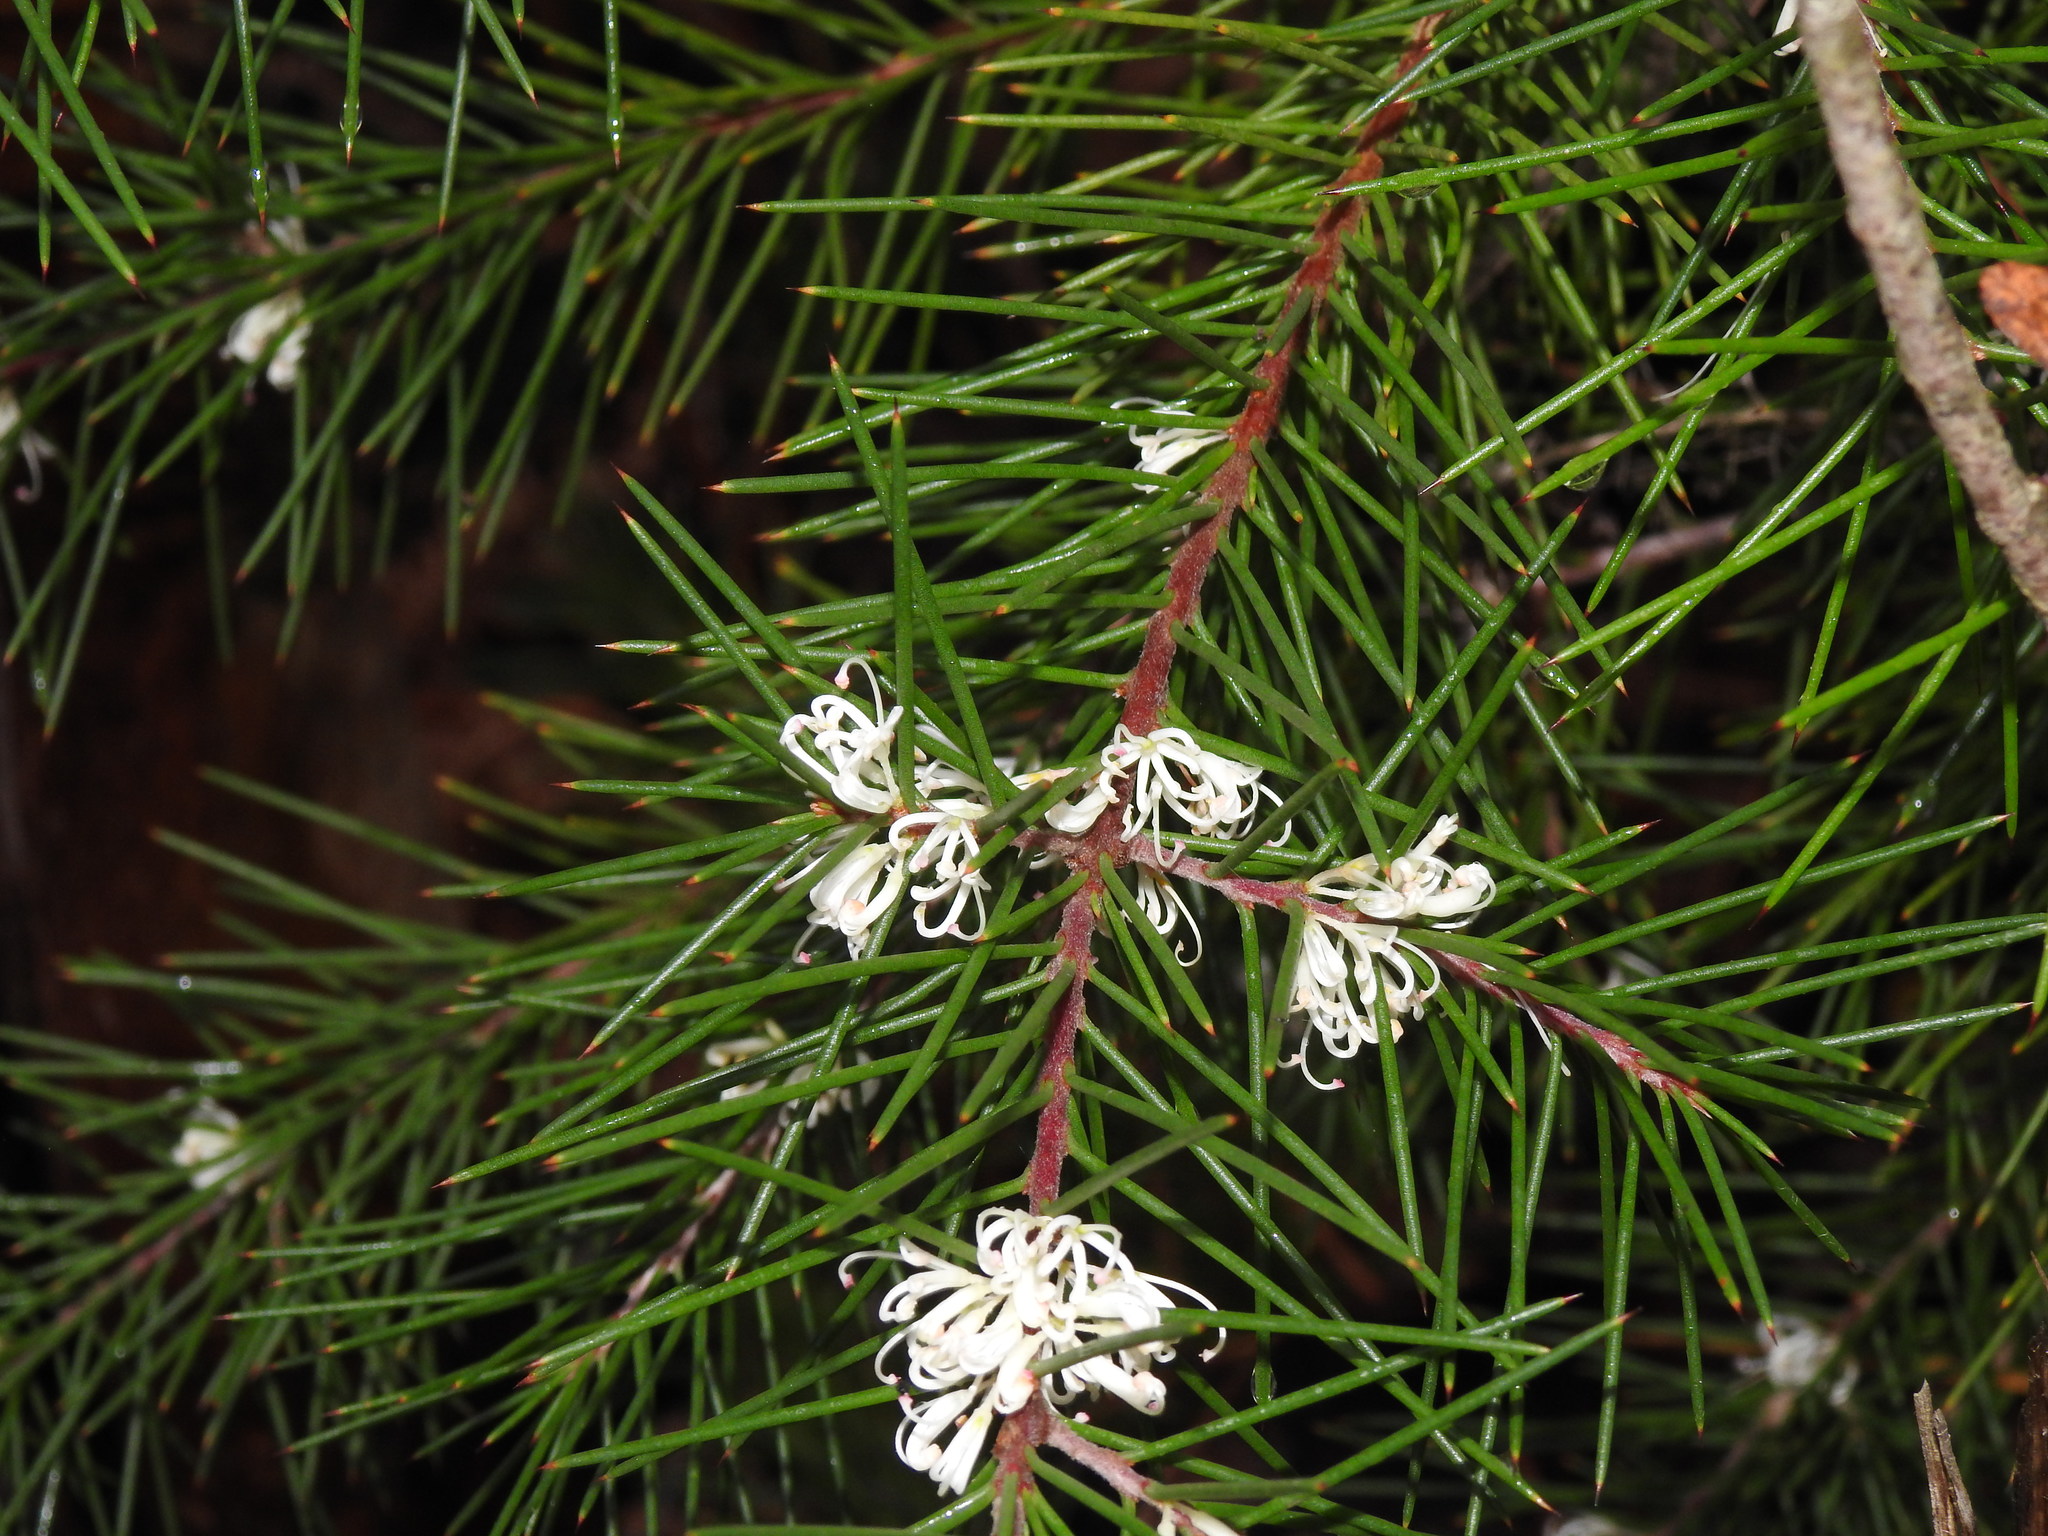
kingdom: Plantae
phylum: Tracheophyta
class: Magnoliopsida
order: Proteales
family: Proteaceae
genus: Hakea
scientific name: Hakea decurrens
